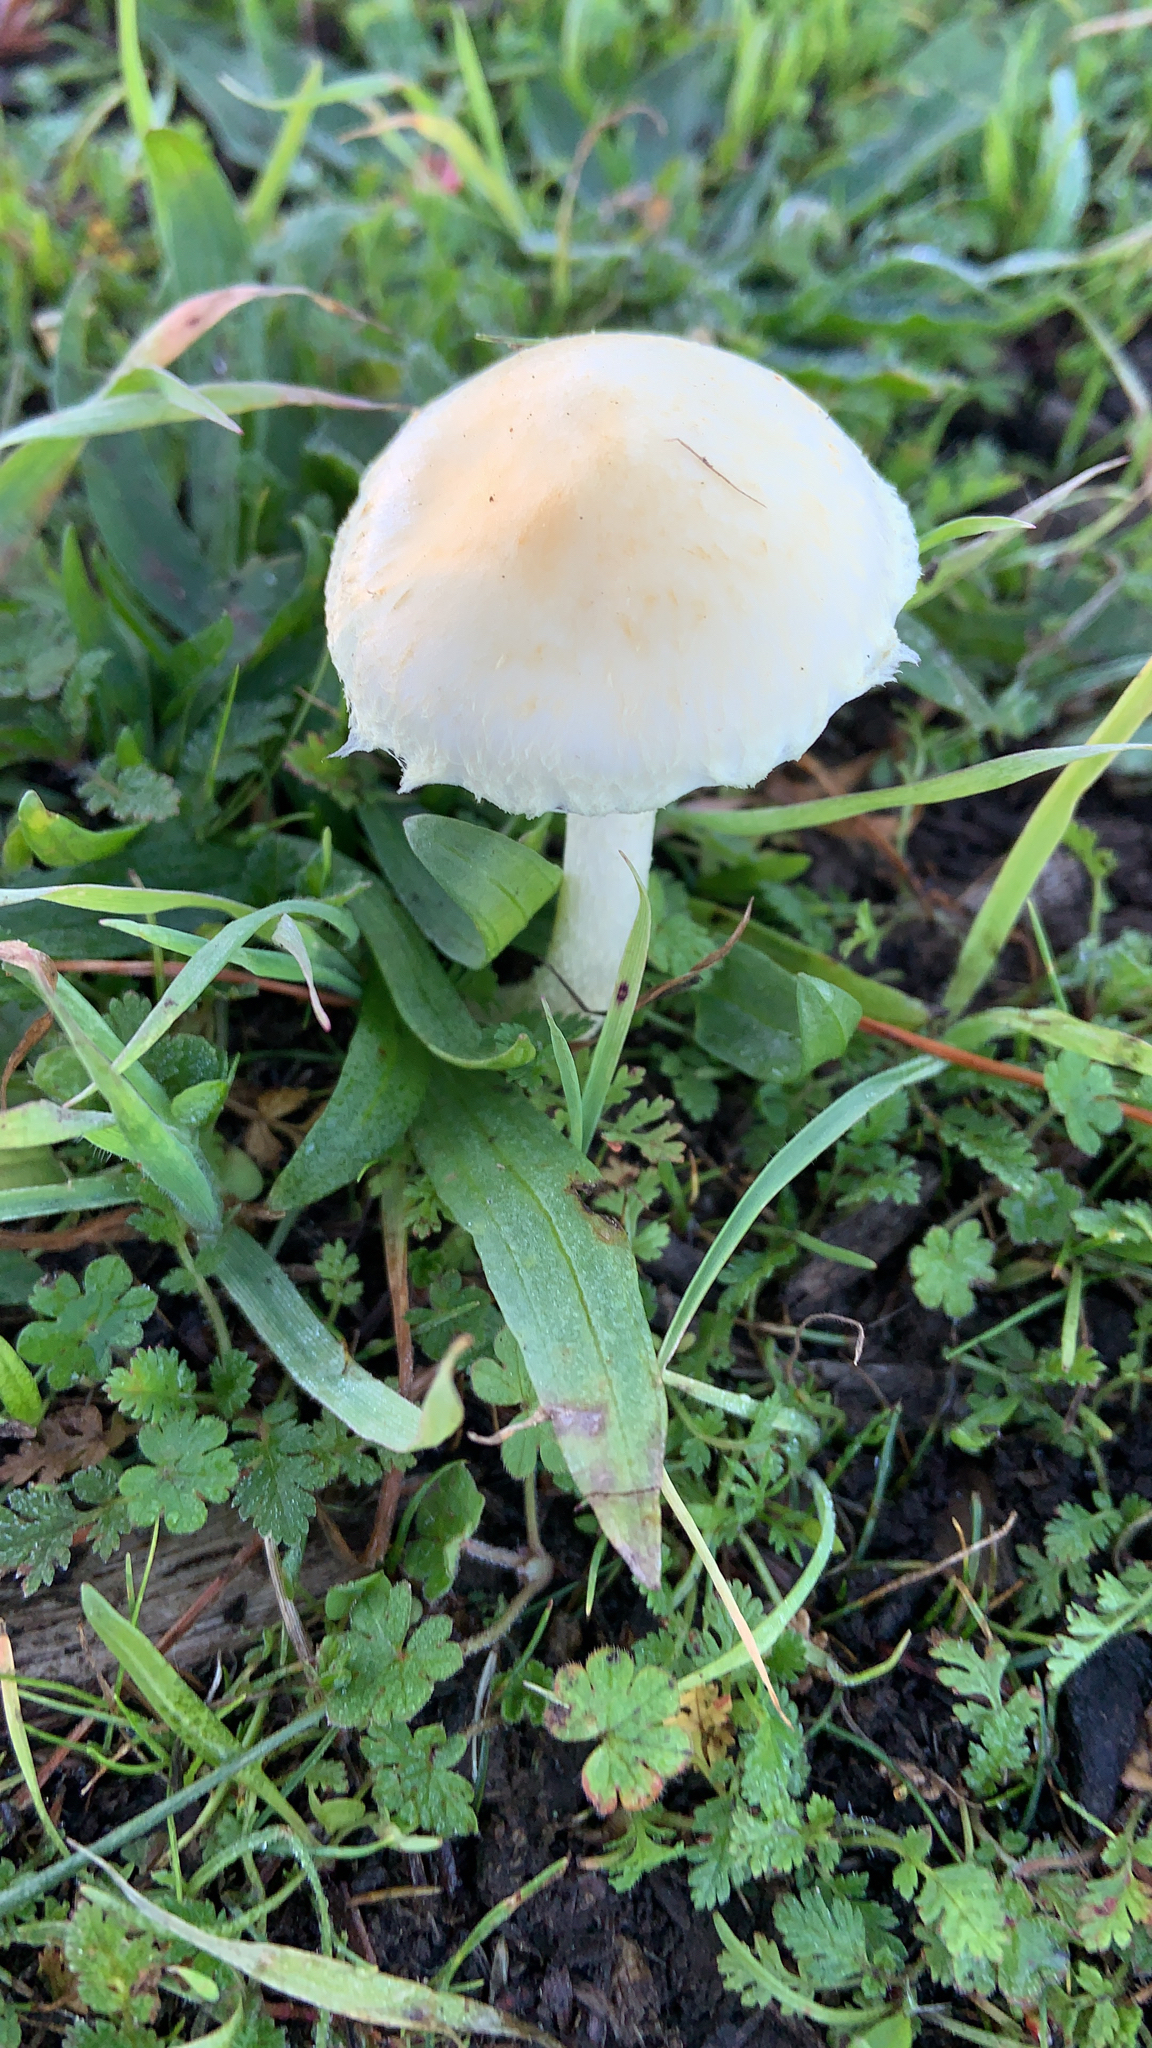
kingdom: Fungi
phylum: Basidiomycota
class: Agaricomycetes
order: Agaricales
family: Strophariaceae
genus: Leratiomyces
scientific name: Leratiomyces percevalii
